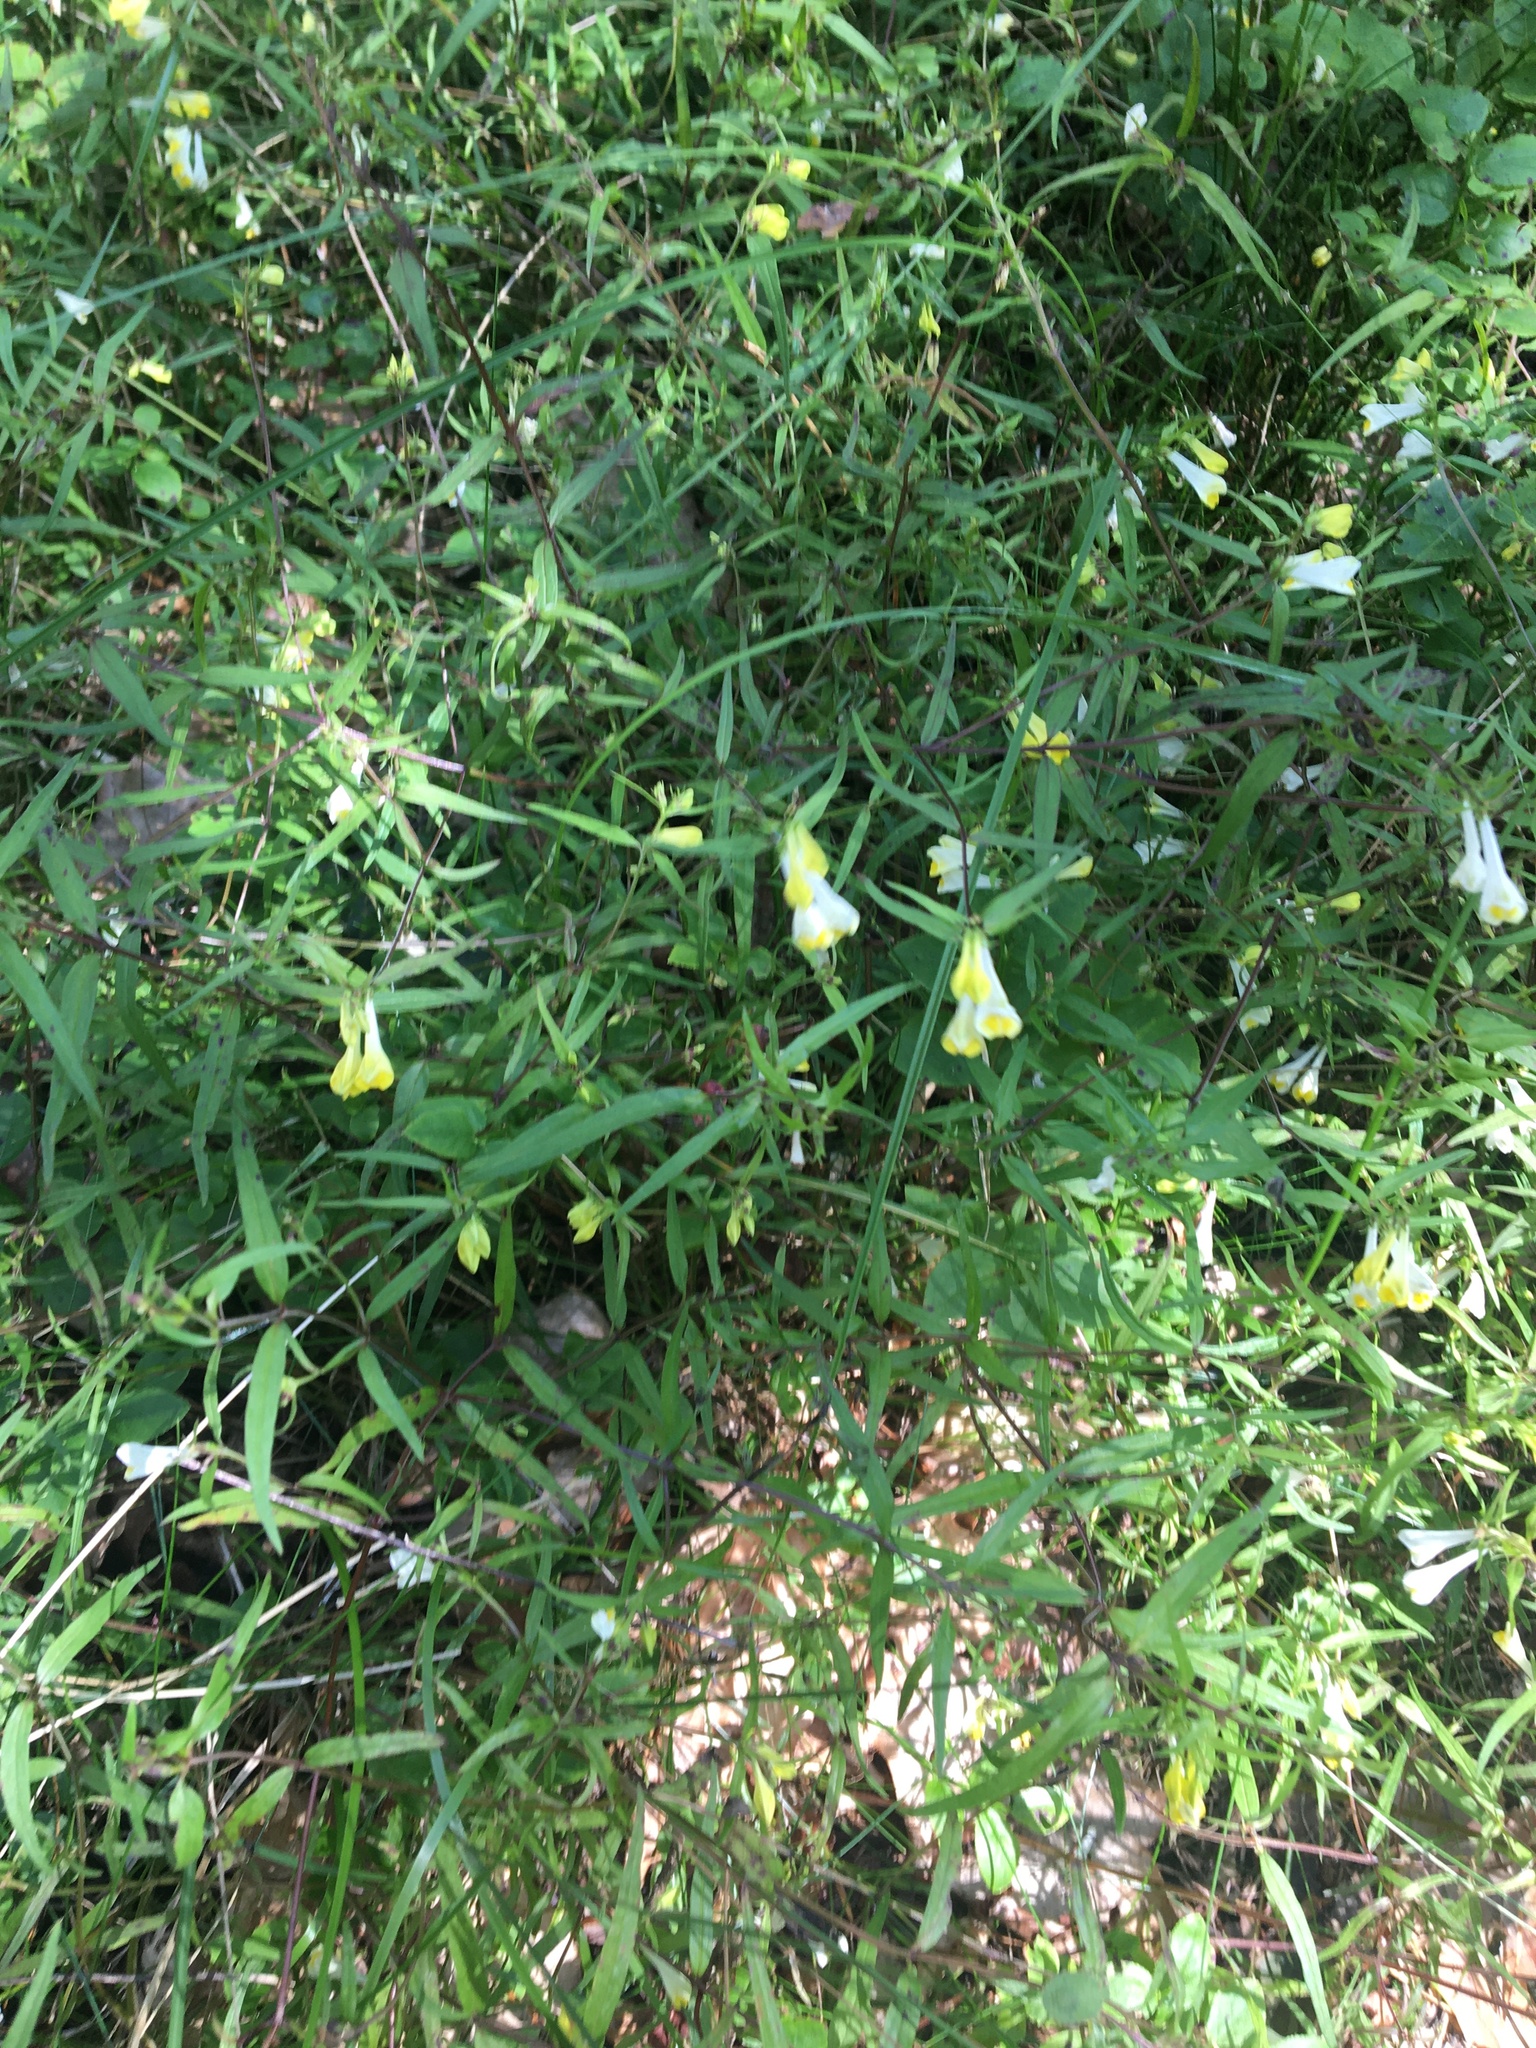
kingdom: Plantae
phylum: Tracheophyta
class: Magnoliopsida
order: Lamiales
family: Orobanchaceae
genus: Melampyrum
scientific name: Melampyrum pratense
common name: Common cow-wheat
